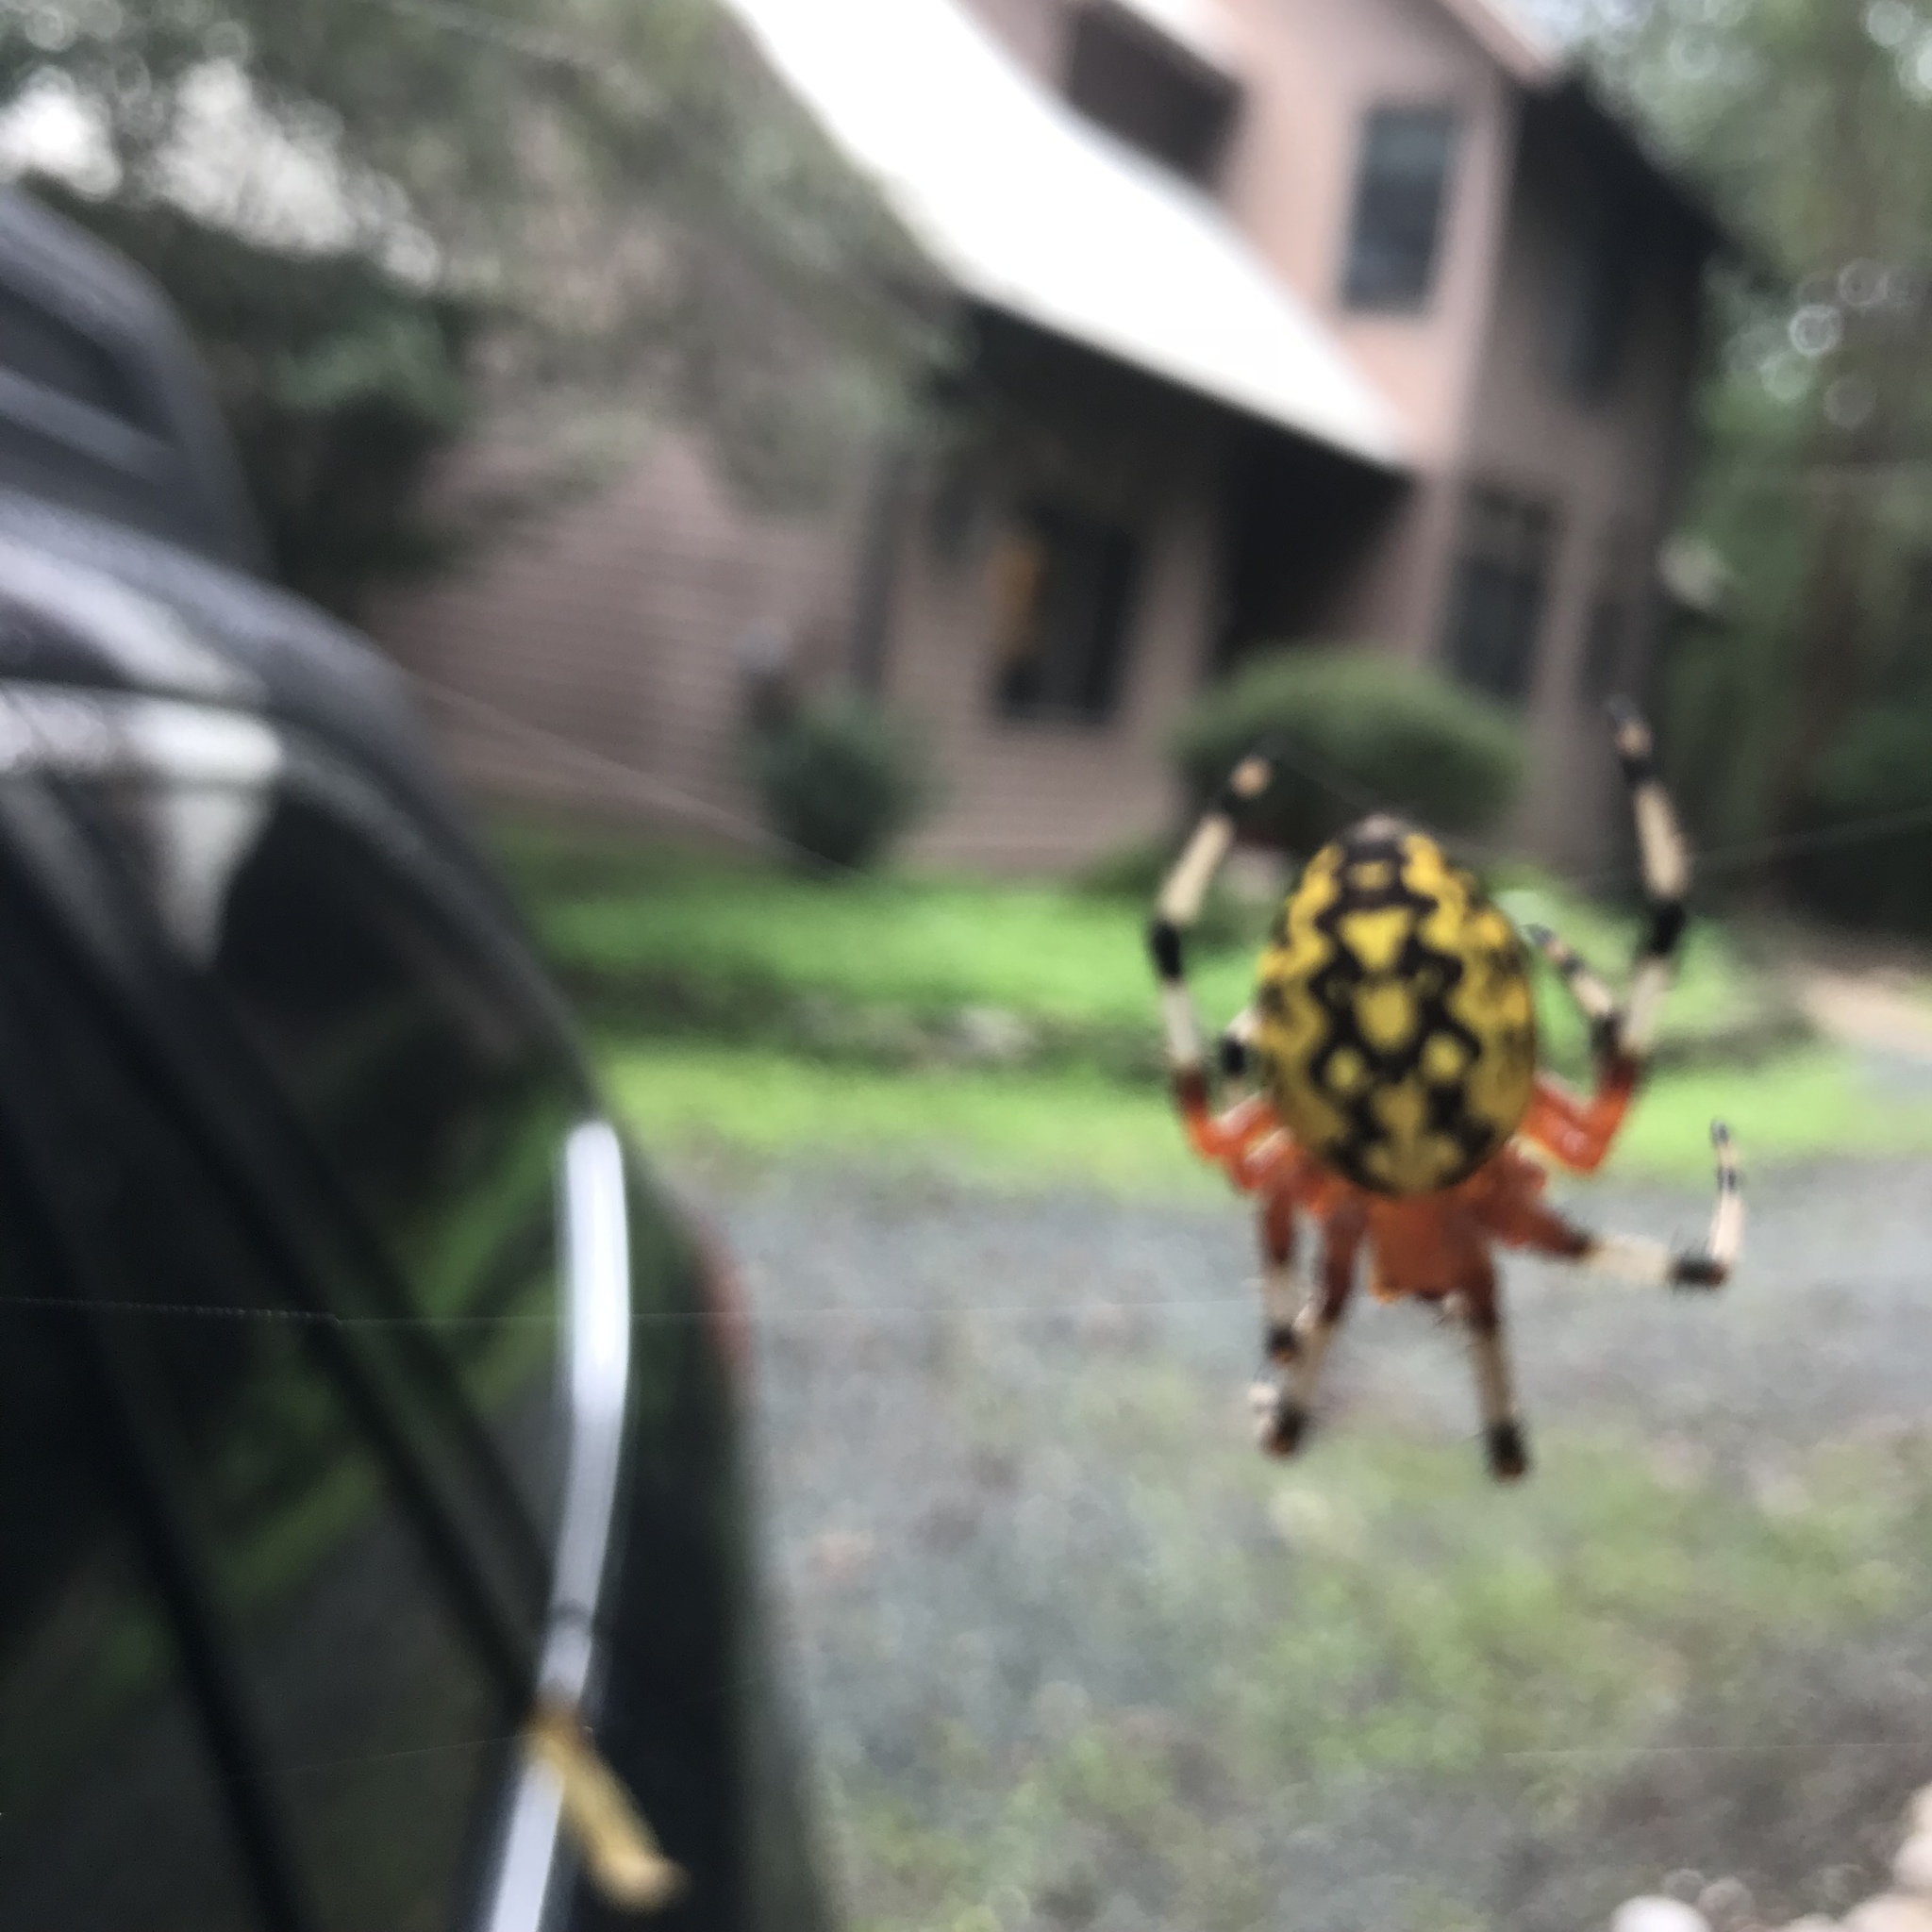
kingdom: Animalia
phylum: Arthropoda
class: Arachnida
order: Araneae
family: Araneidae
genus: Araneus
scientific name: Araneus marmoreus
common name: Marbled orbweaver
